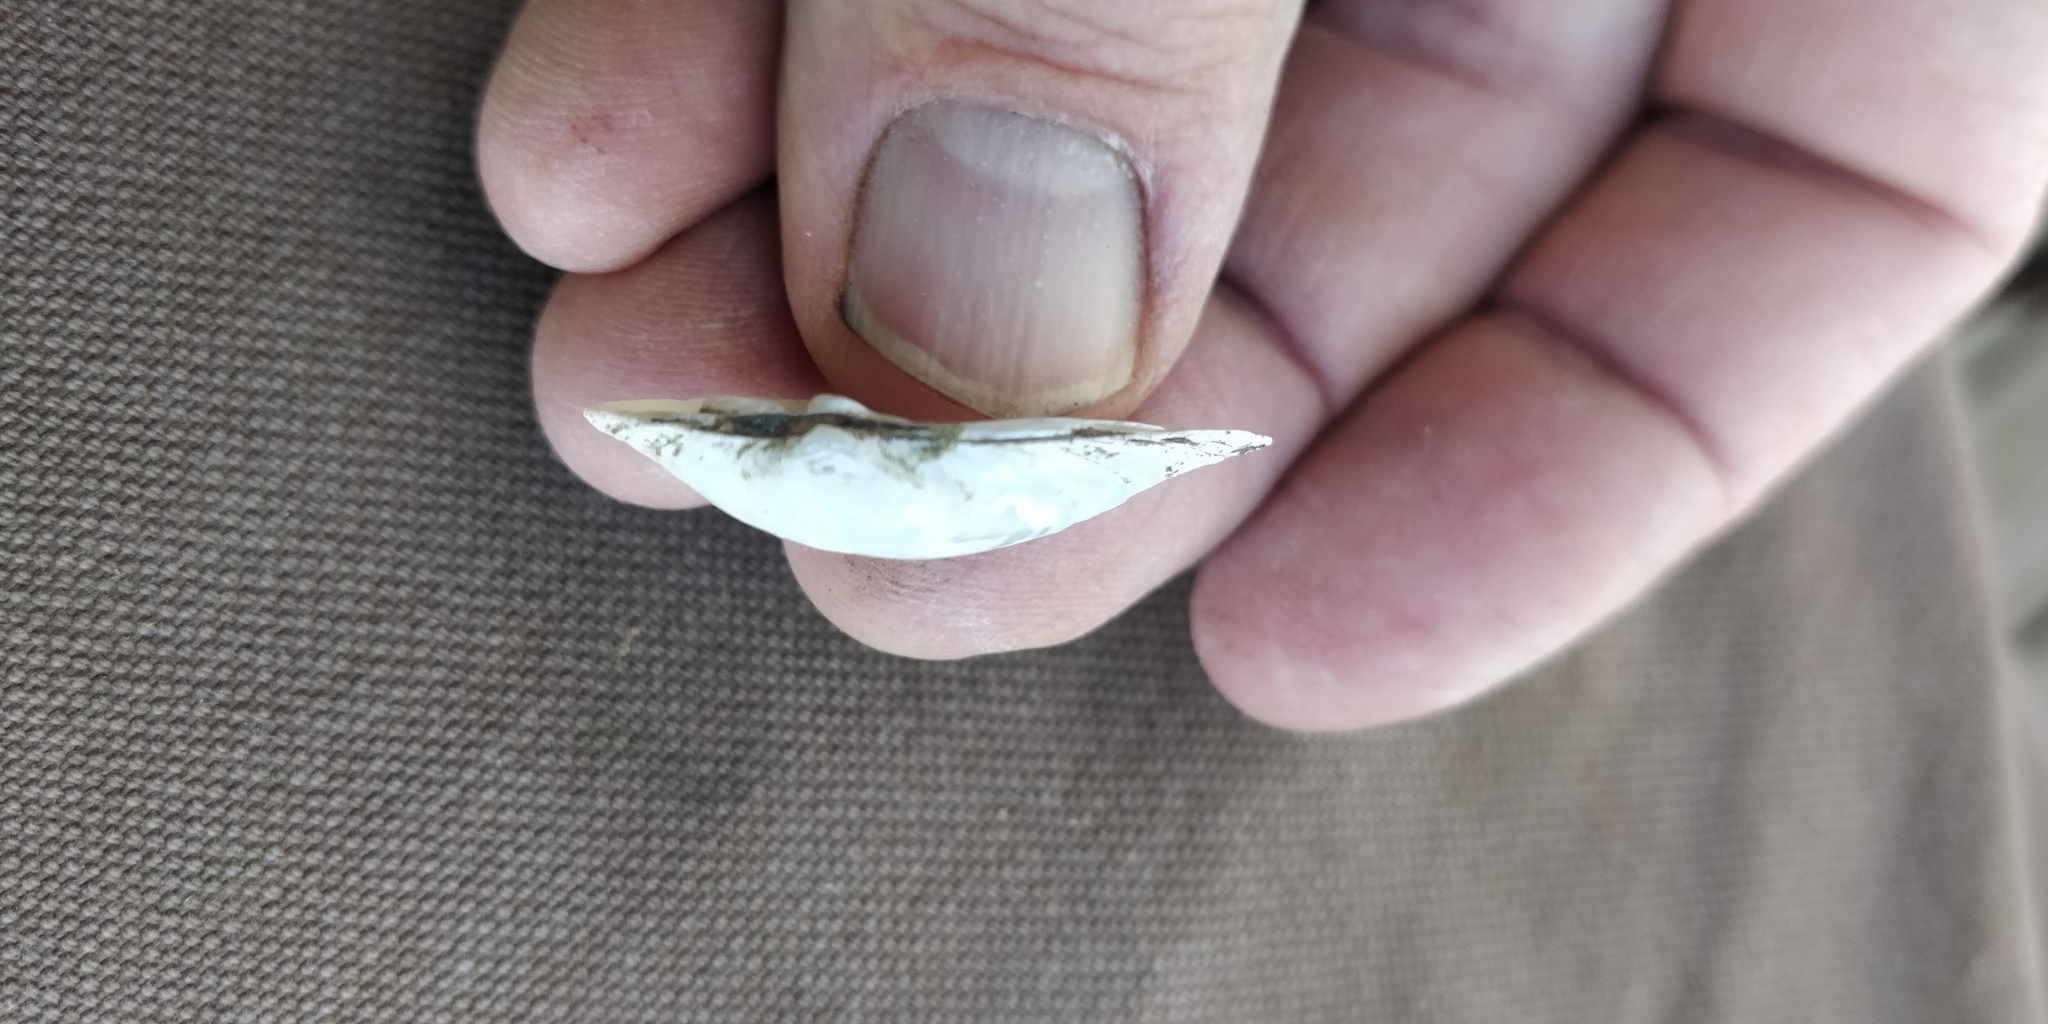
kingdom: Animalia
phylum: Mollusca
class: Bivalvia
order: Unionida
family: Unionidae
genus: Truncilla
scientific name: Truncilla donaciformis
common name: Fawnsfoot
